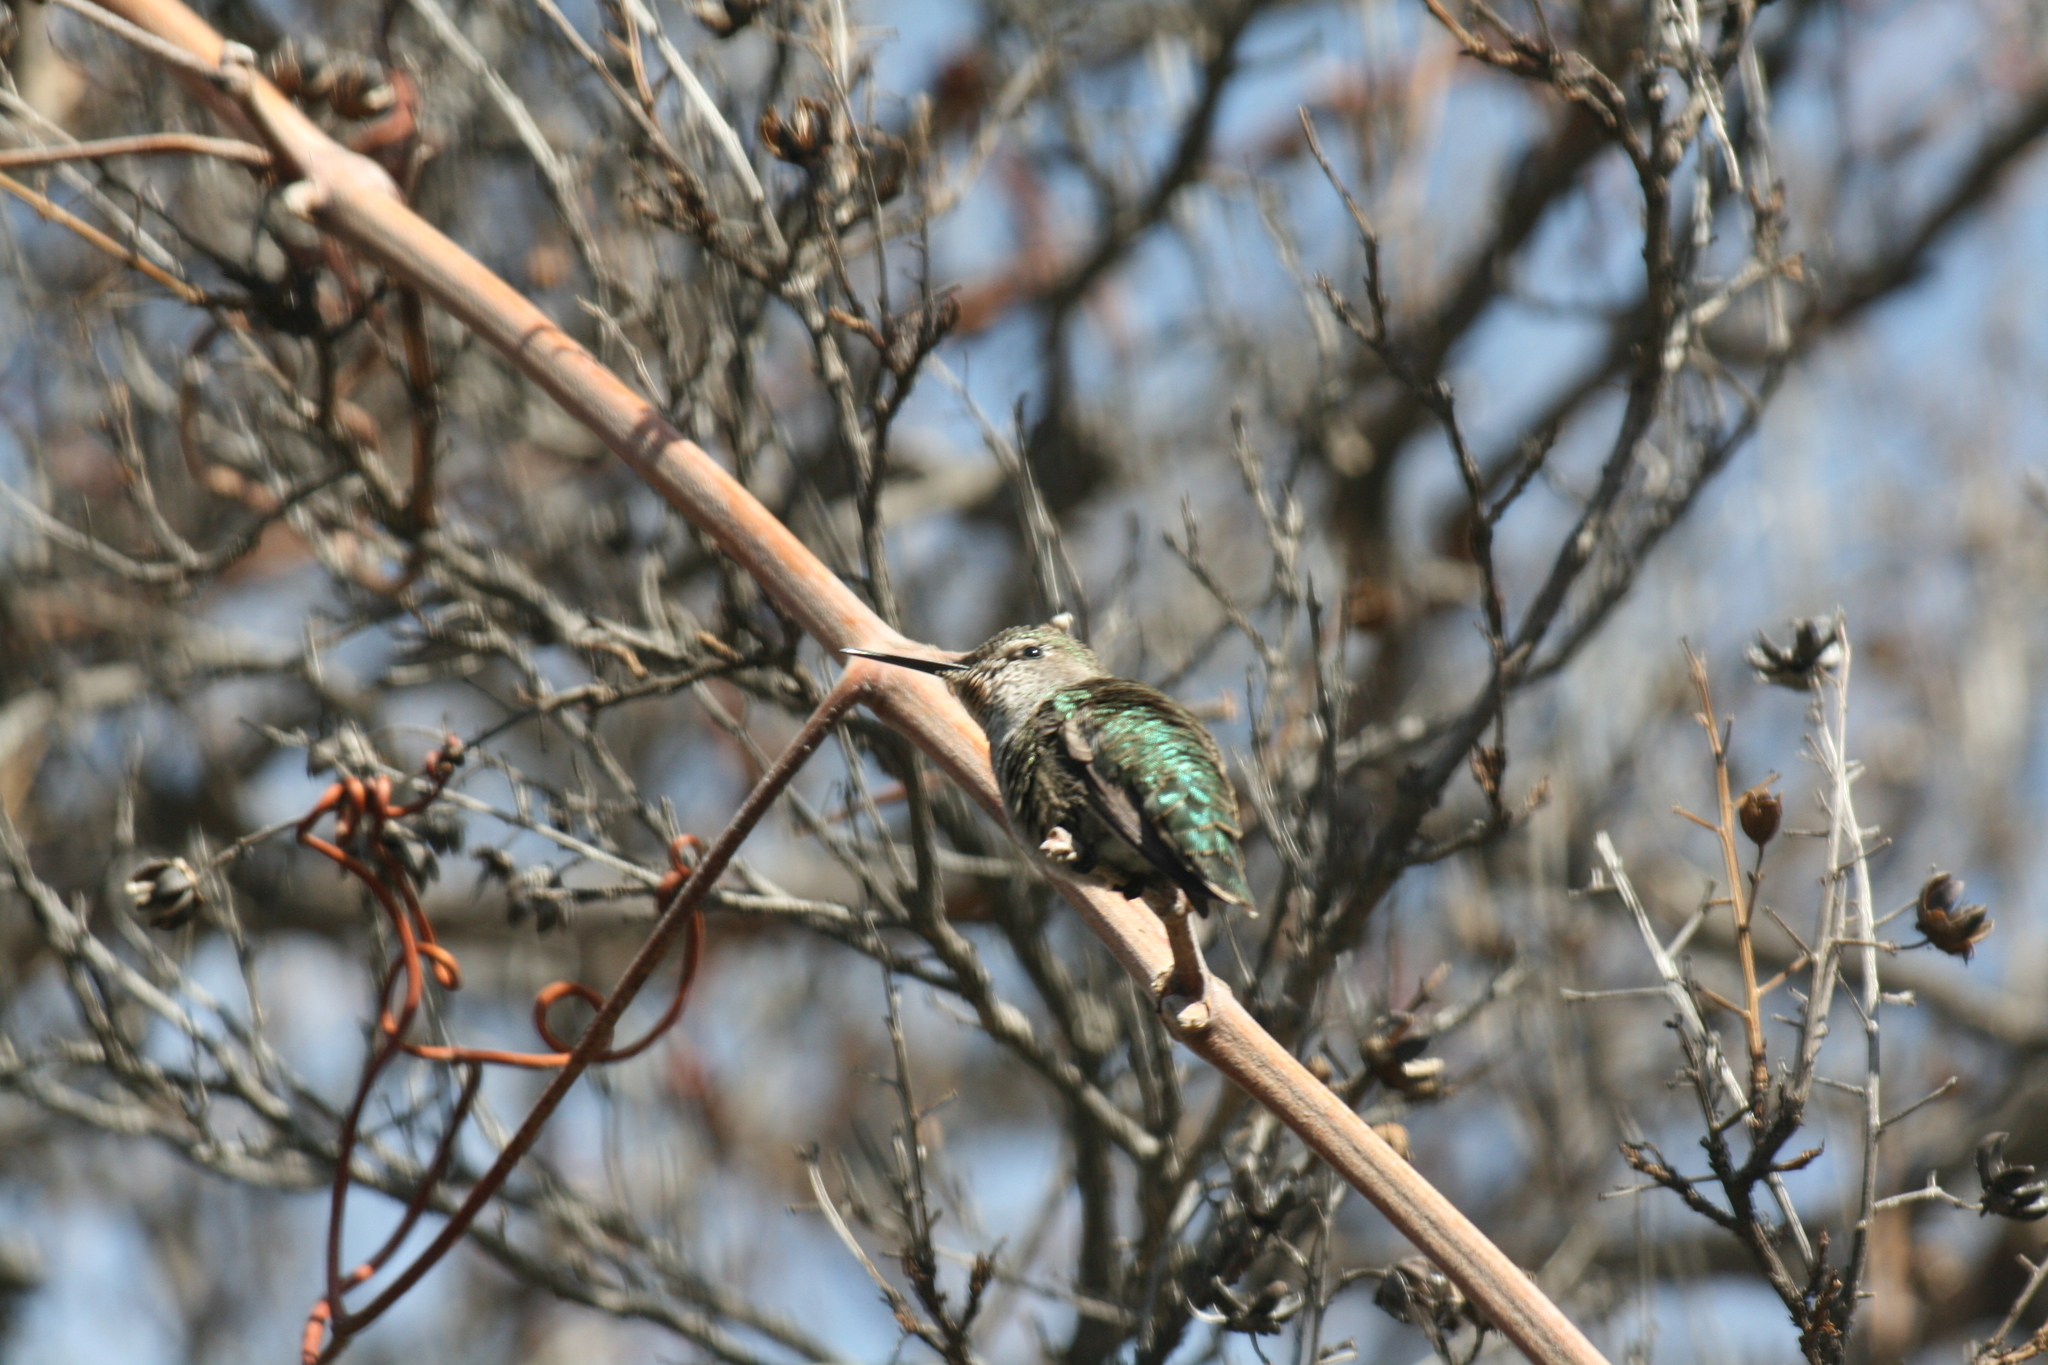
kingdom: Animalia
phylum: Chordata
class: Aves
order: Apodiformes
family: Trochilidae
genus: Calypte
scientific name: Calypte anna
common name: Anna's hummingbird
